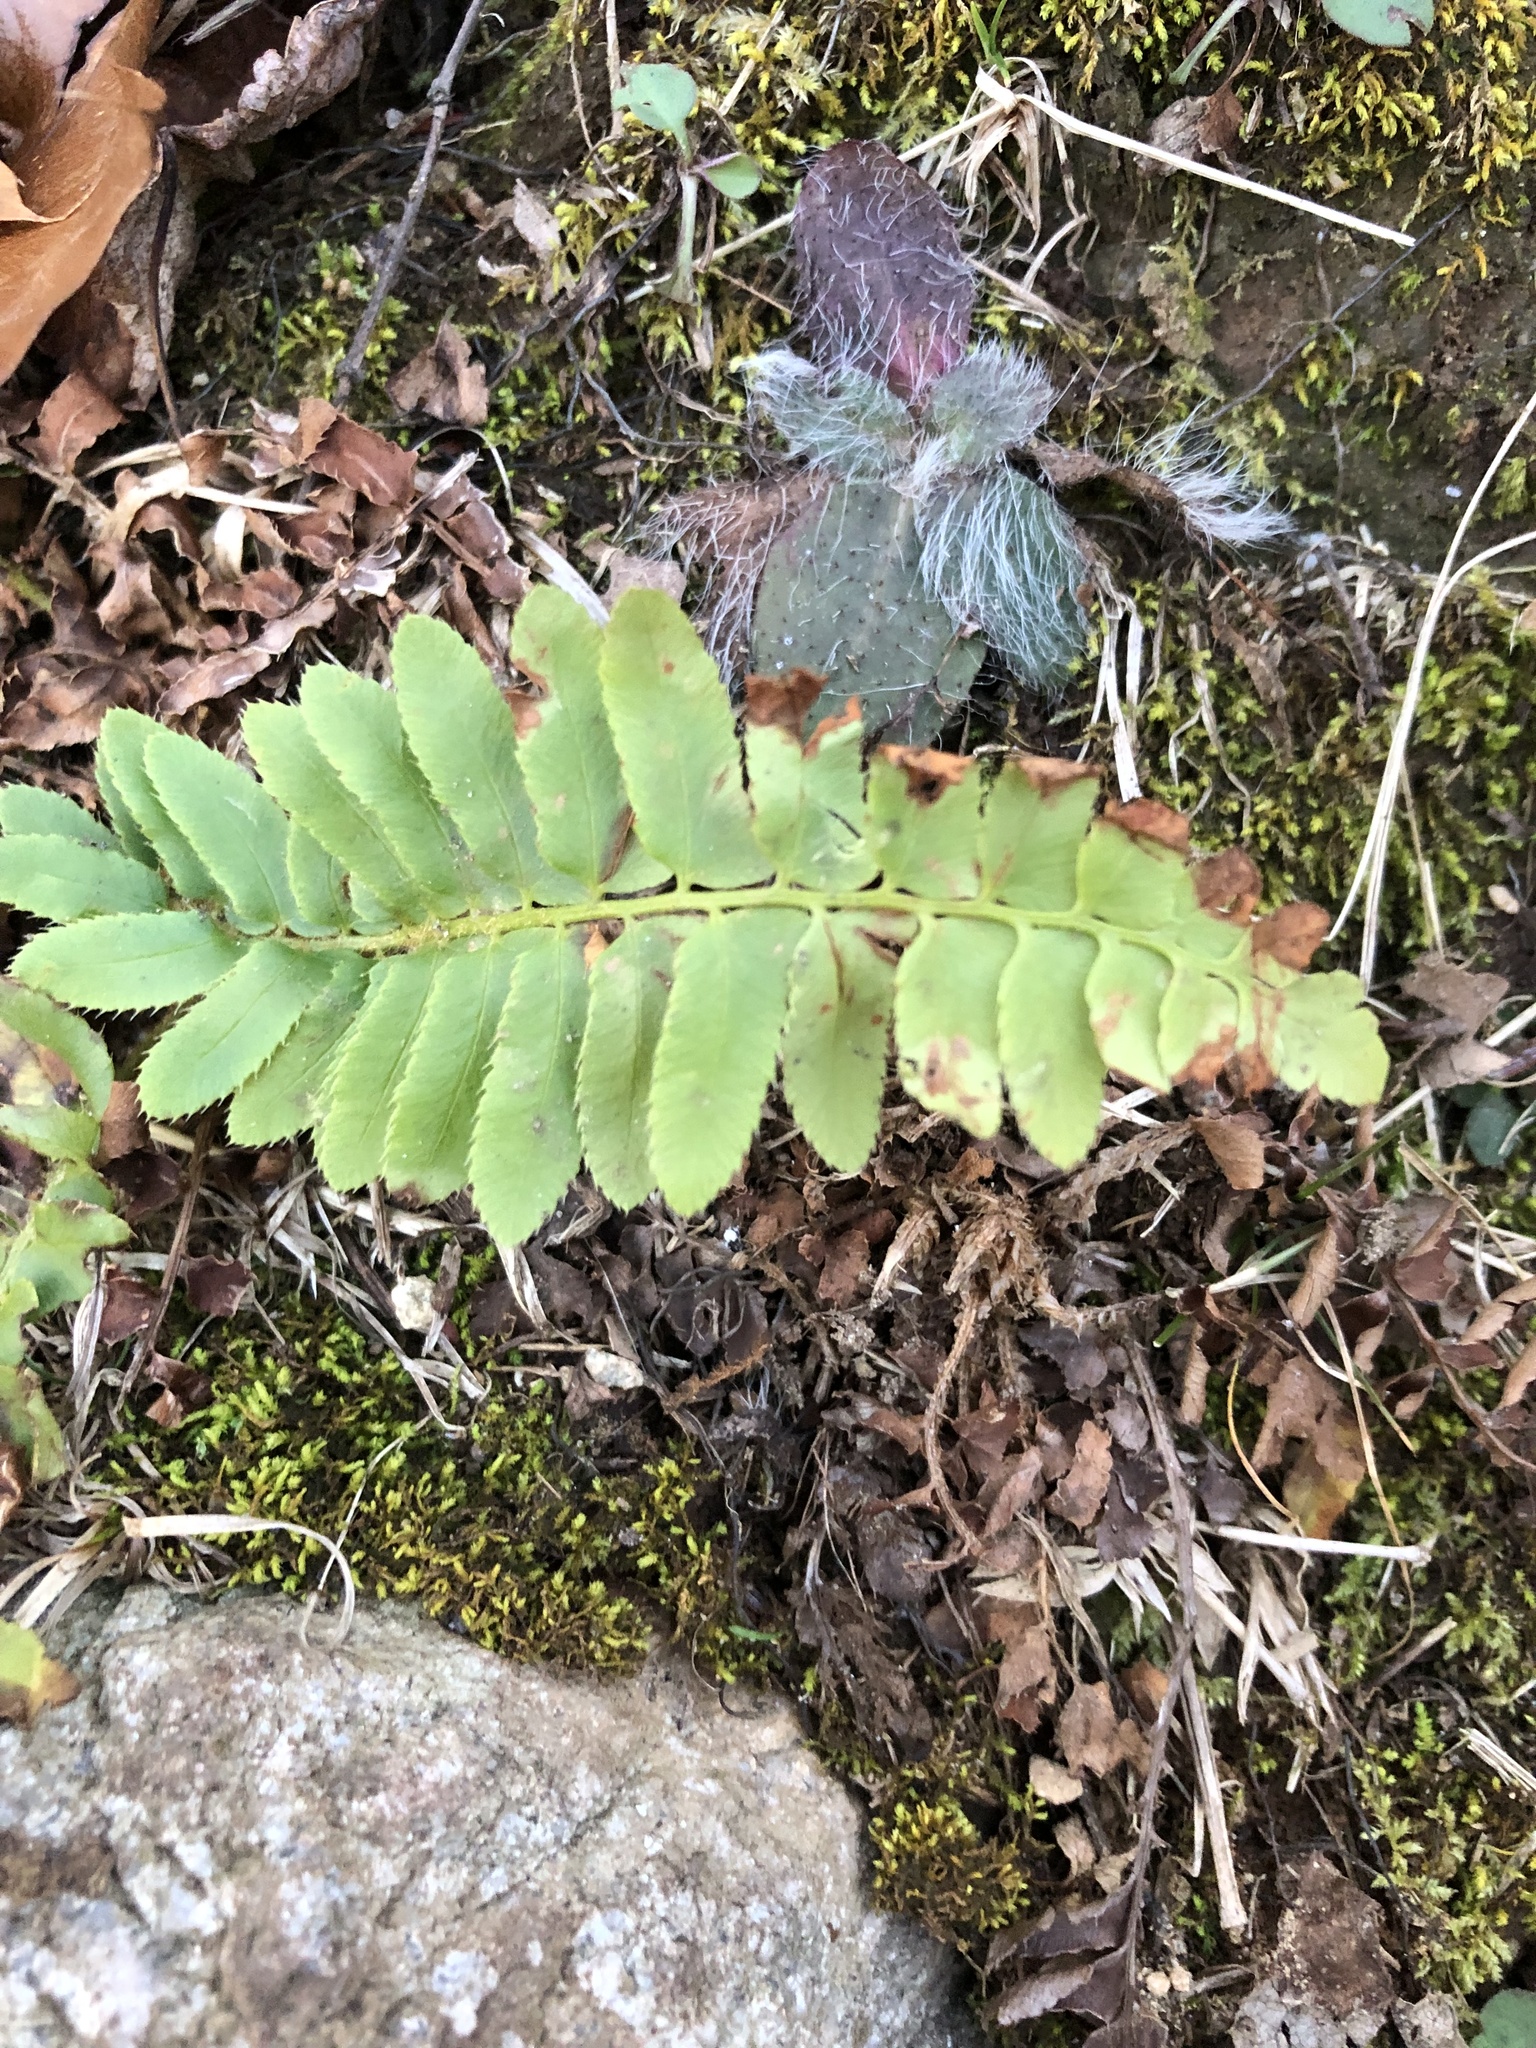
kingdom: Plantae
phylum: Tracheophyta
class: Polypodiopsida
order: Polypodiales
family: Dryopteridaceae
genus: Polystichum
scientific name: Polystichum acrostichoides
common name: Christmas fern
